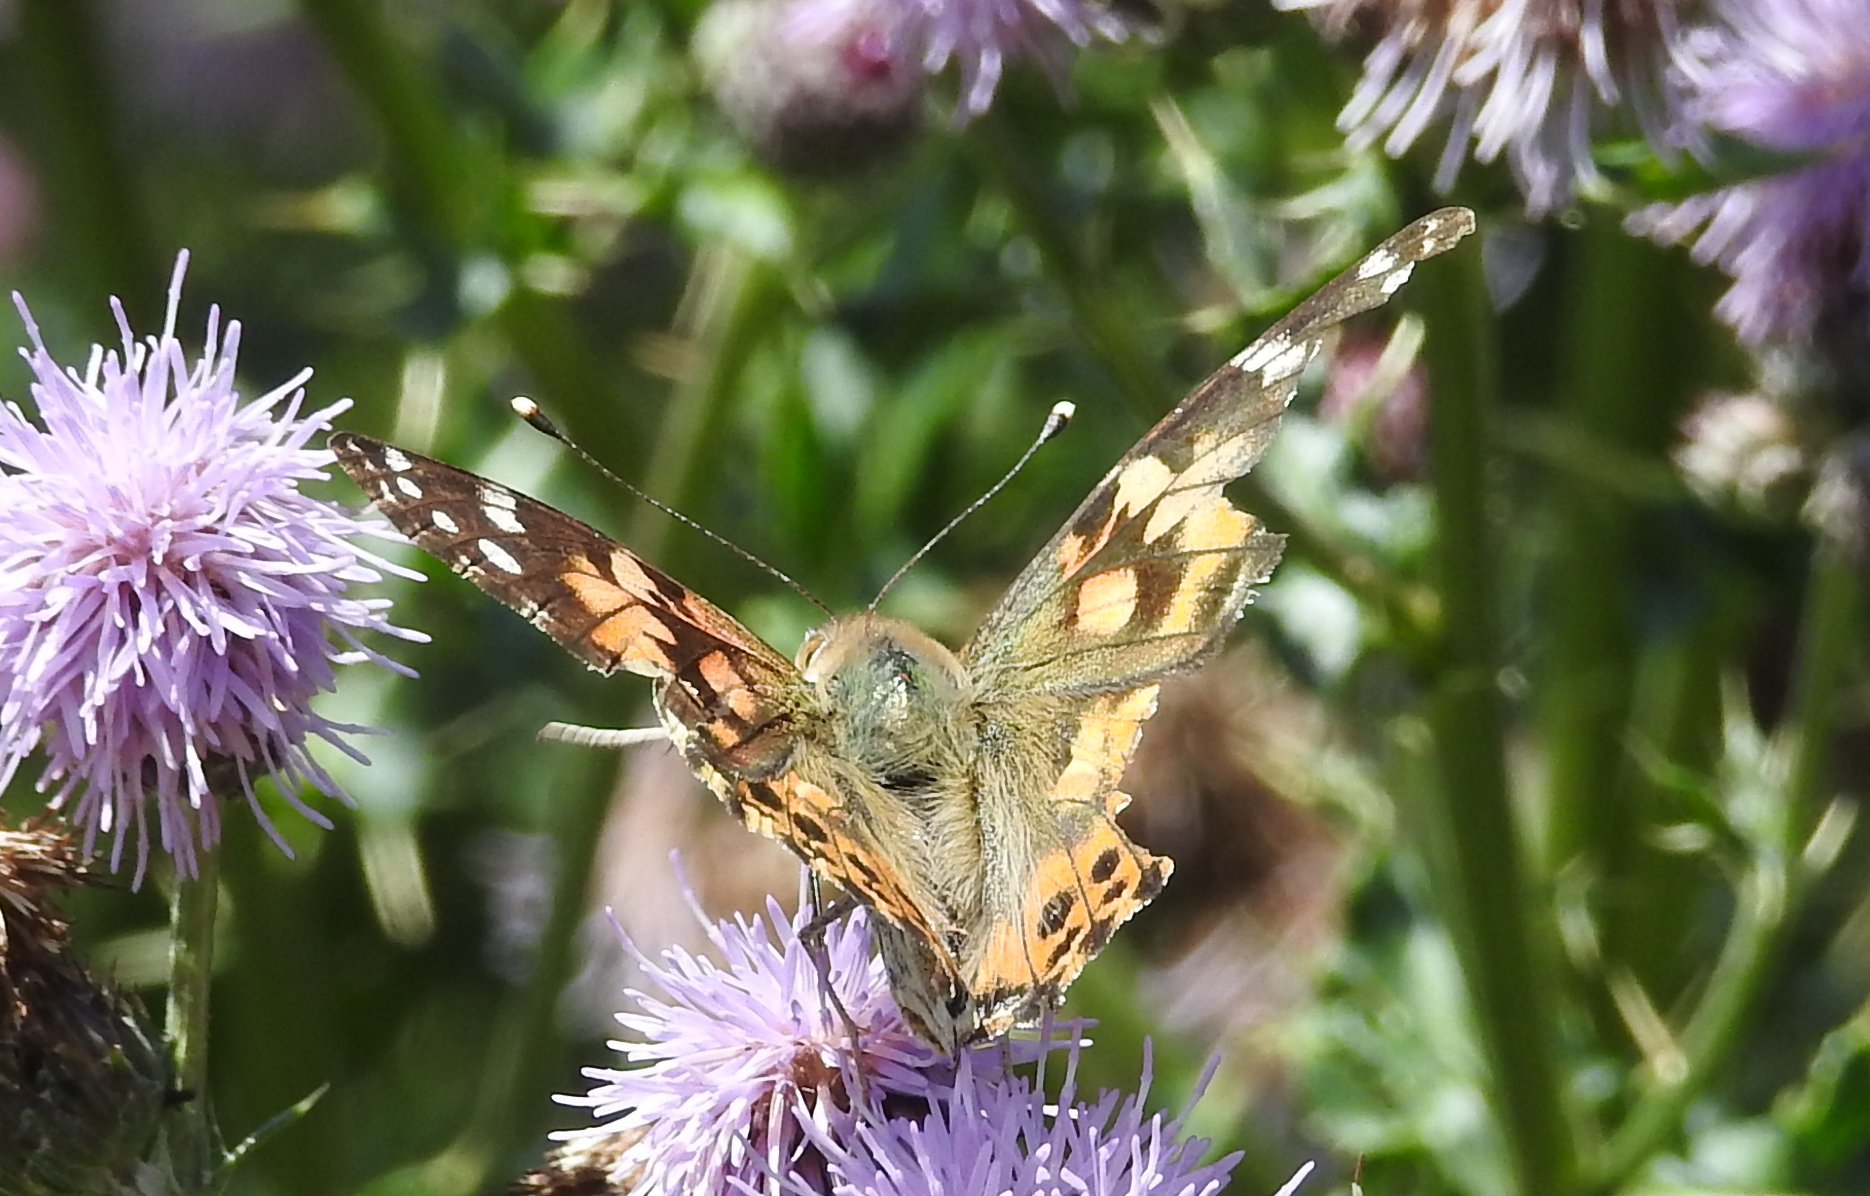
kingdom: Animalia
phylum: Arthropoda
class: Insecta
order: Lepidoptera
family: Nymphalidae
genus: Vanessa
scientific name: Vanessa cardui
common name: Painted lady
